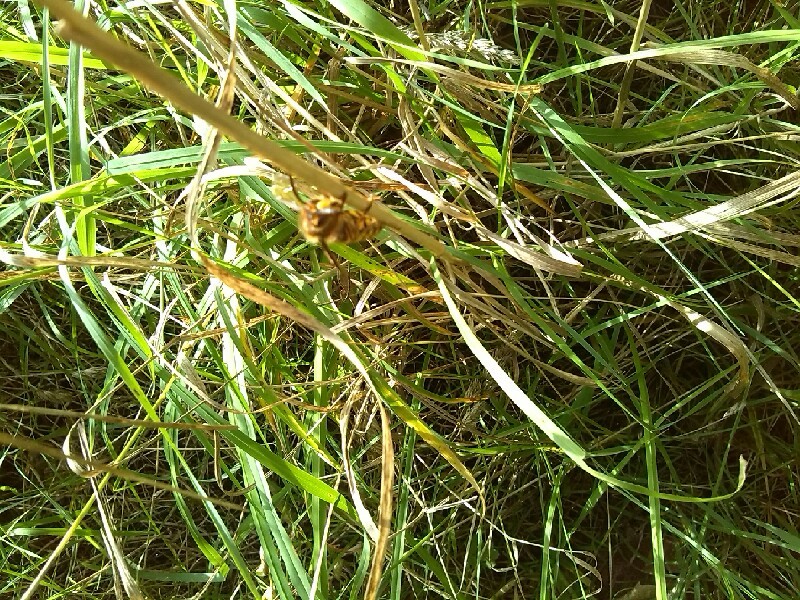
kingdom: Animalia
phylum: Arthropoda
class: Insecta
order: Hymenoptera
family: Vespidae
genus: Vespa
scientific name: Vespa crabro
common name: Hornet
